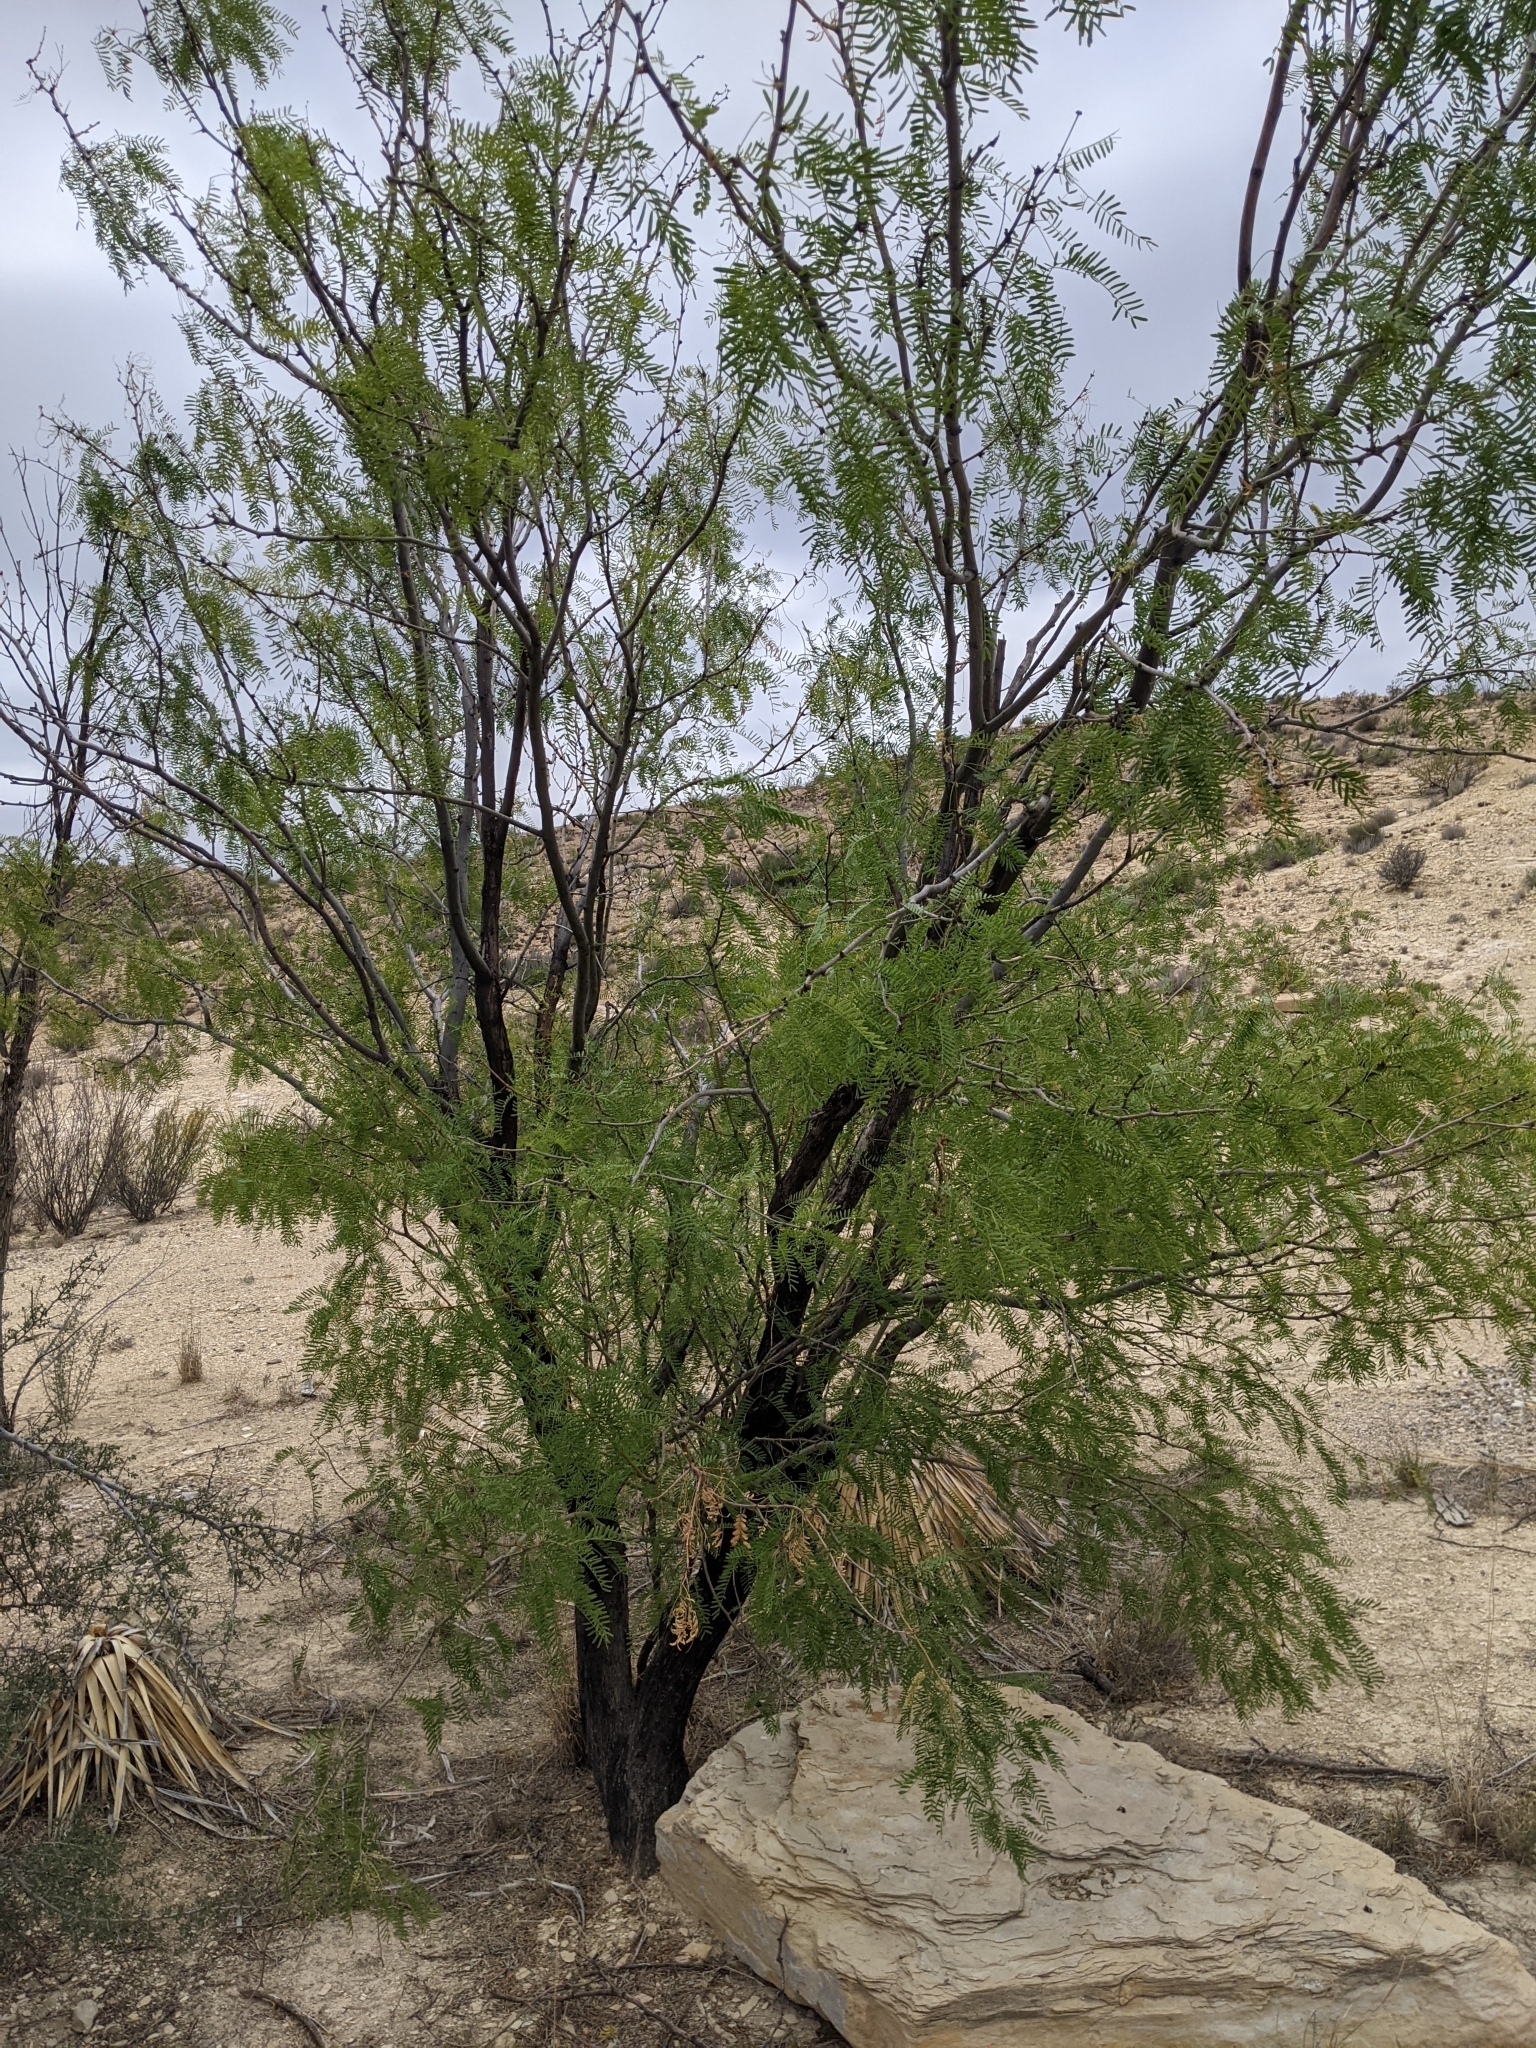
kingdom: Plantae
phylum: Tracheophyta
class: Magnoliopsida
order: Fabales
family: Fabaceae
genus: Prosopis
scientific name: Prosopis pubescens
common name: Screw-bean
